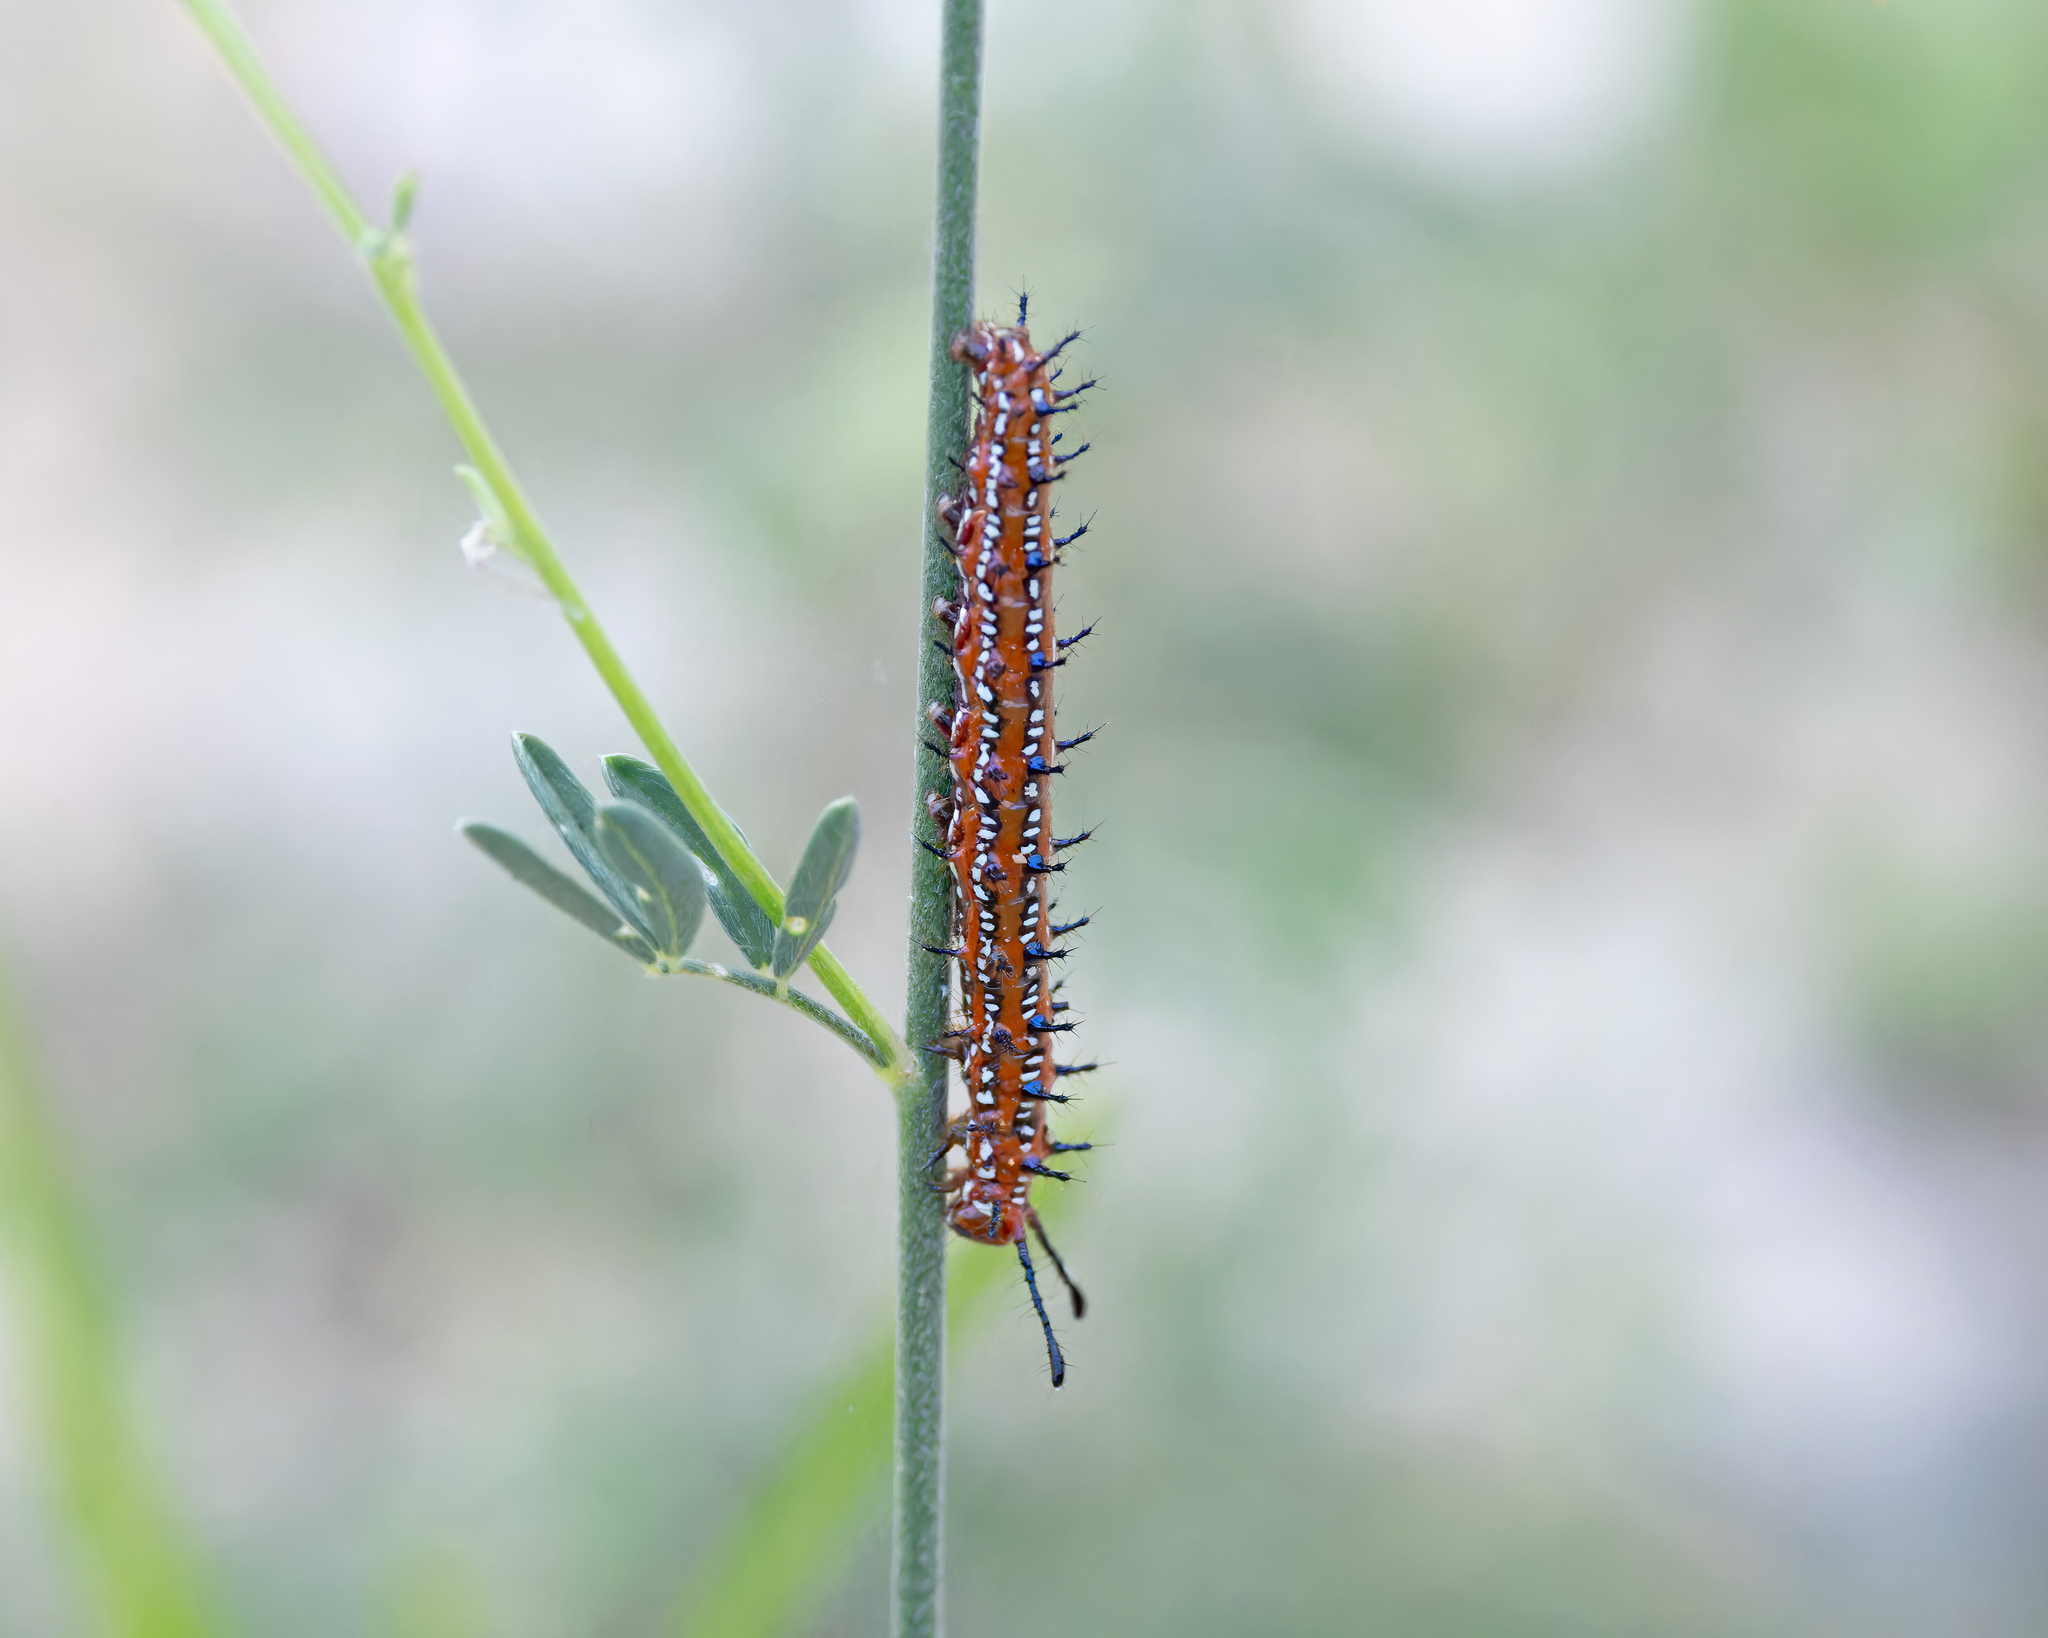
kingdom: Animalia
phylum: Arthropoda
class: Insecta
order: Lepidoptera
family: Nymphalidae
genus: Euptoieta
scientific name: Euptoieta claudia
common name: Variegated fritillary
